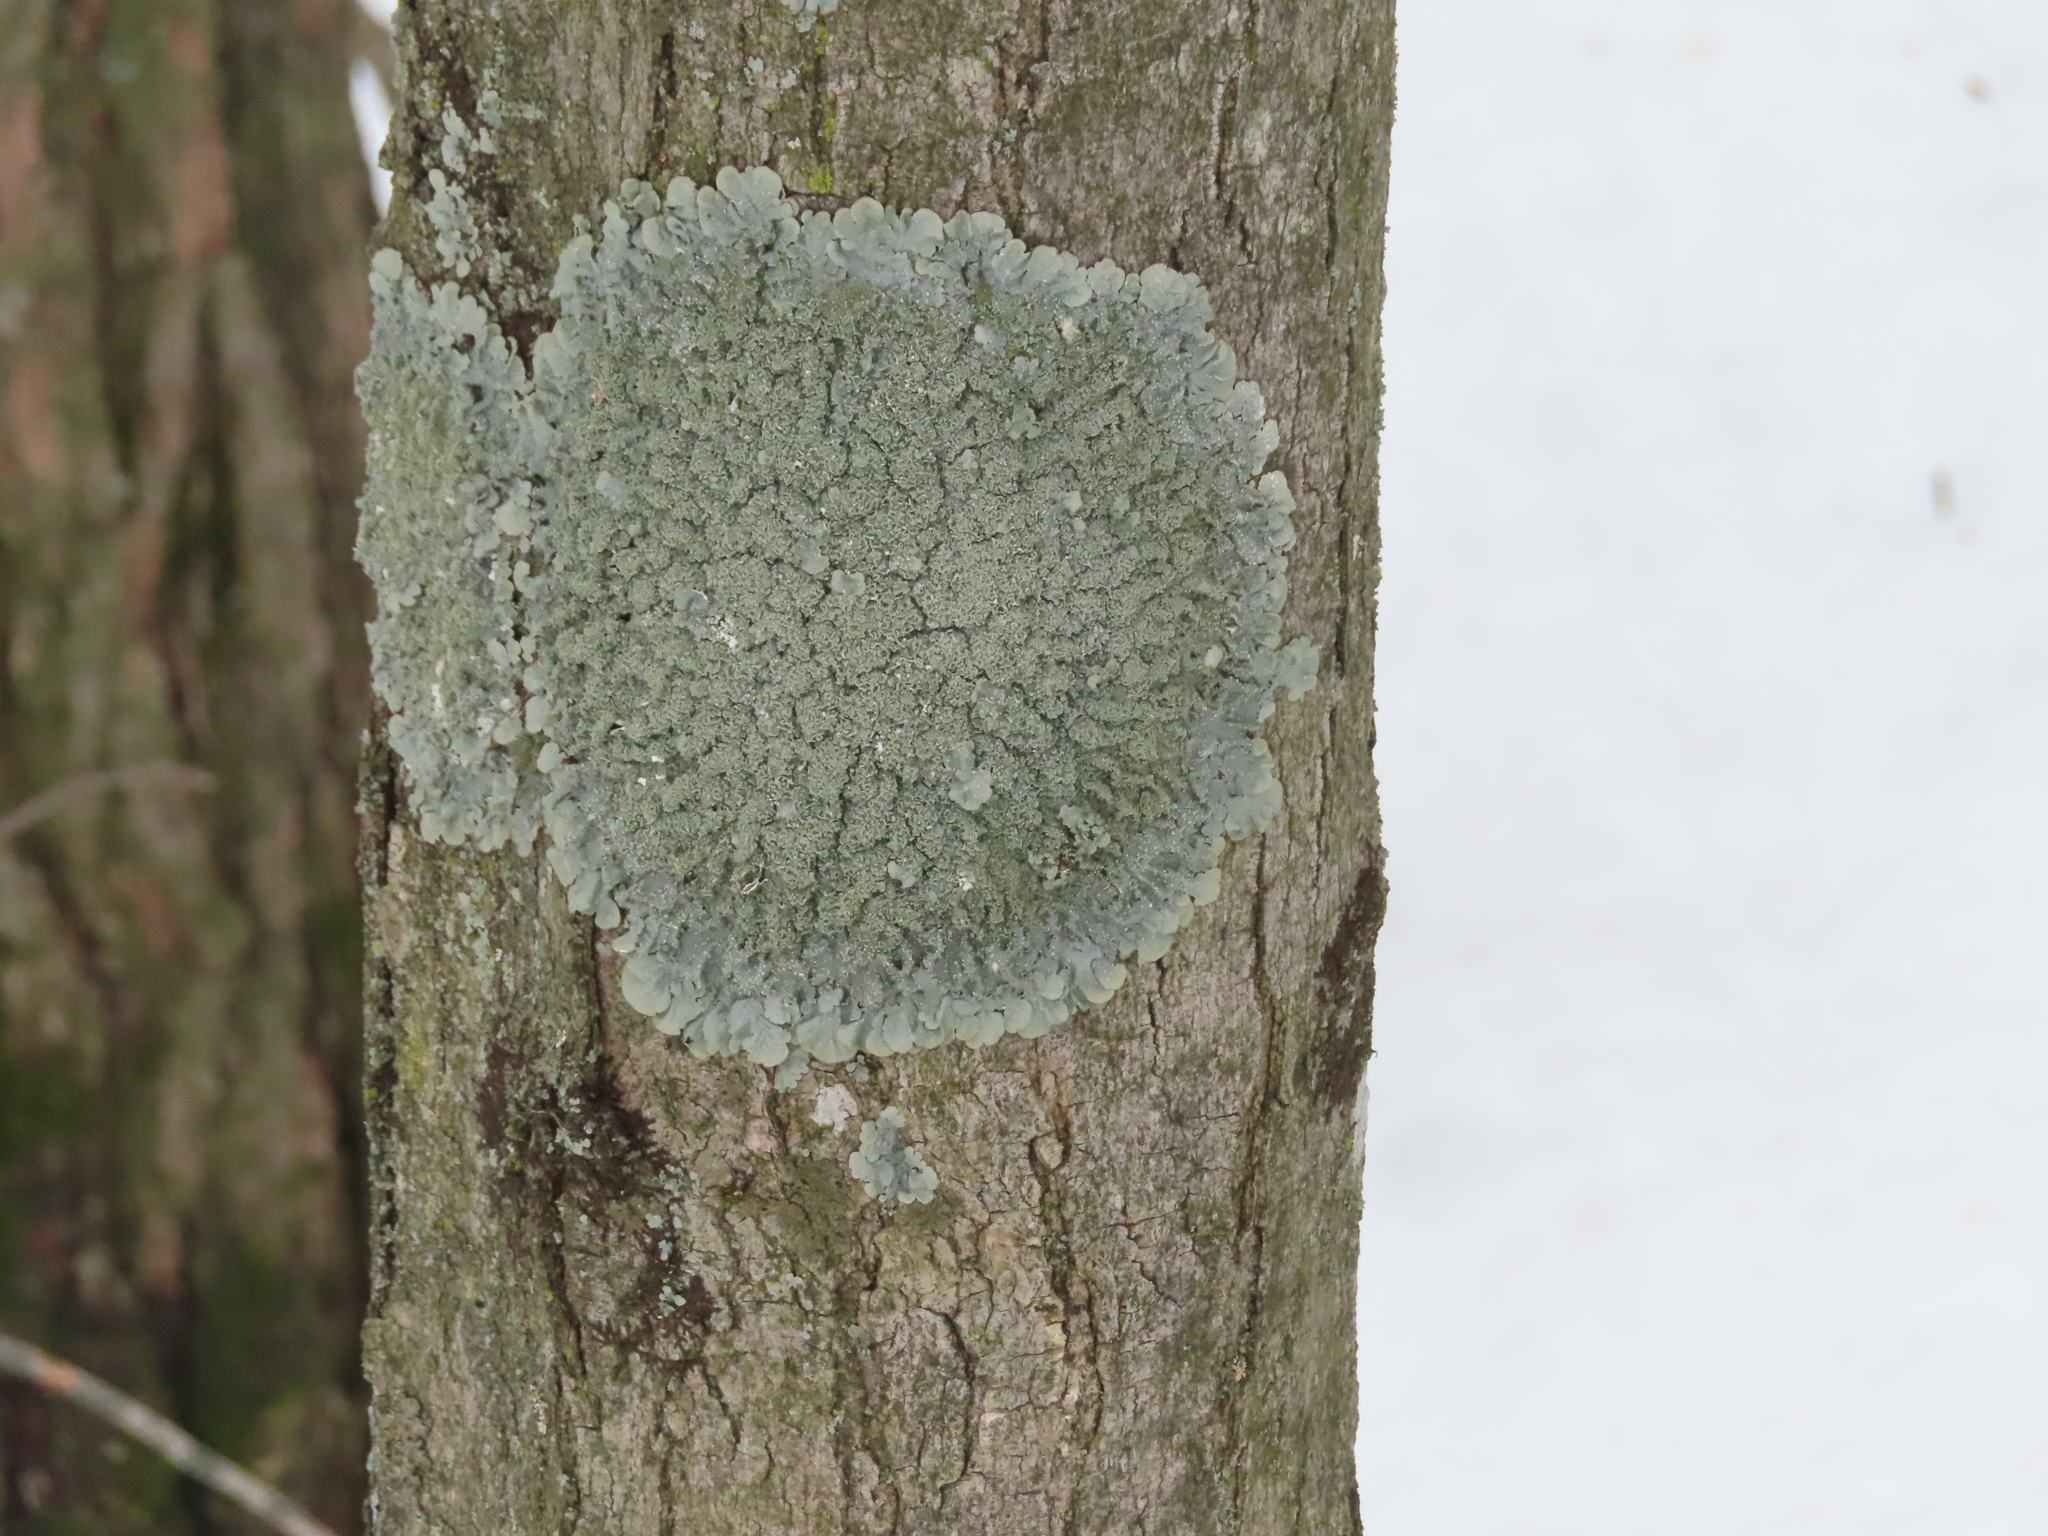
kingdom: Fungi
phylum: Ascomycota
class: Lecanoromycetes
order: Lecanorales
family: Parmeliaceae
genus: Punctelia
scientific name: Punctelia missouriensis
